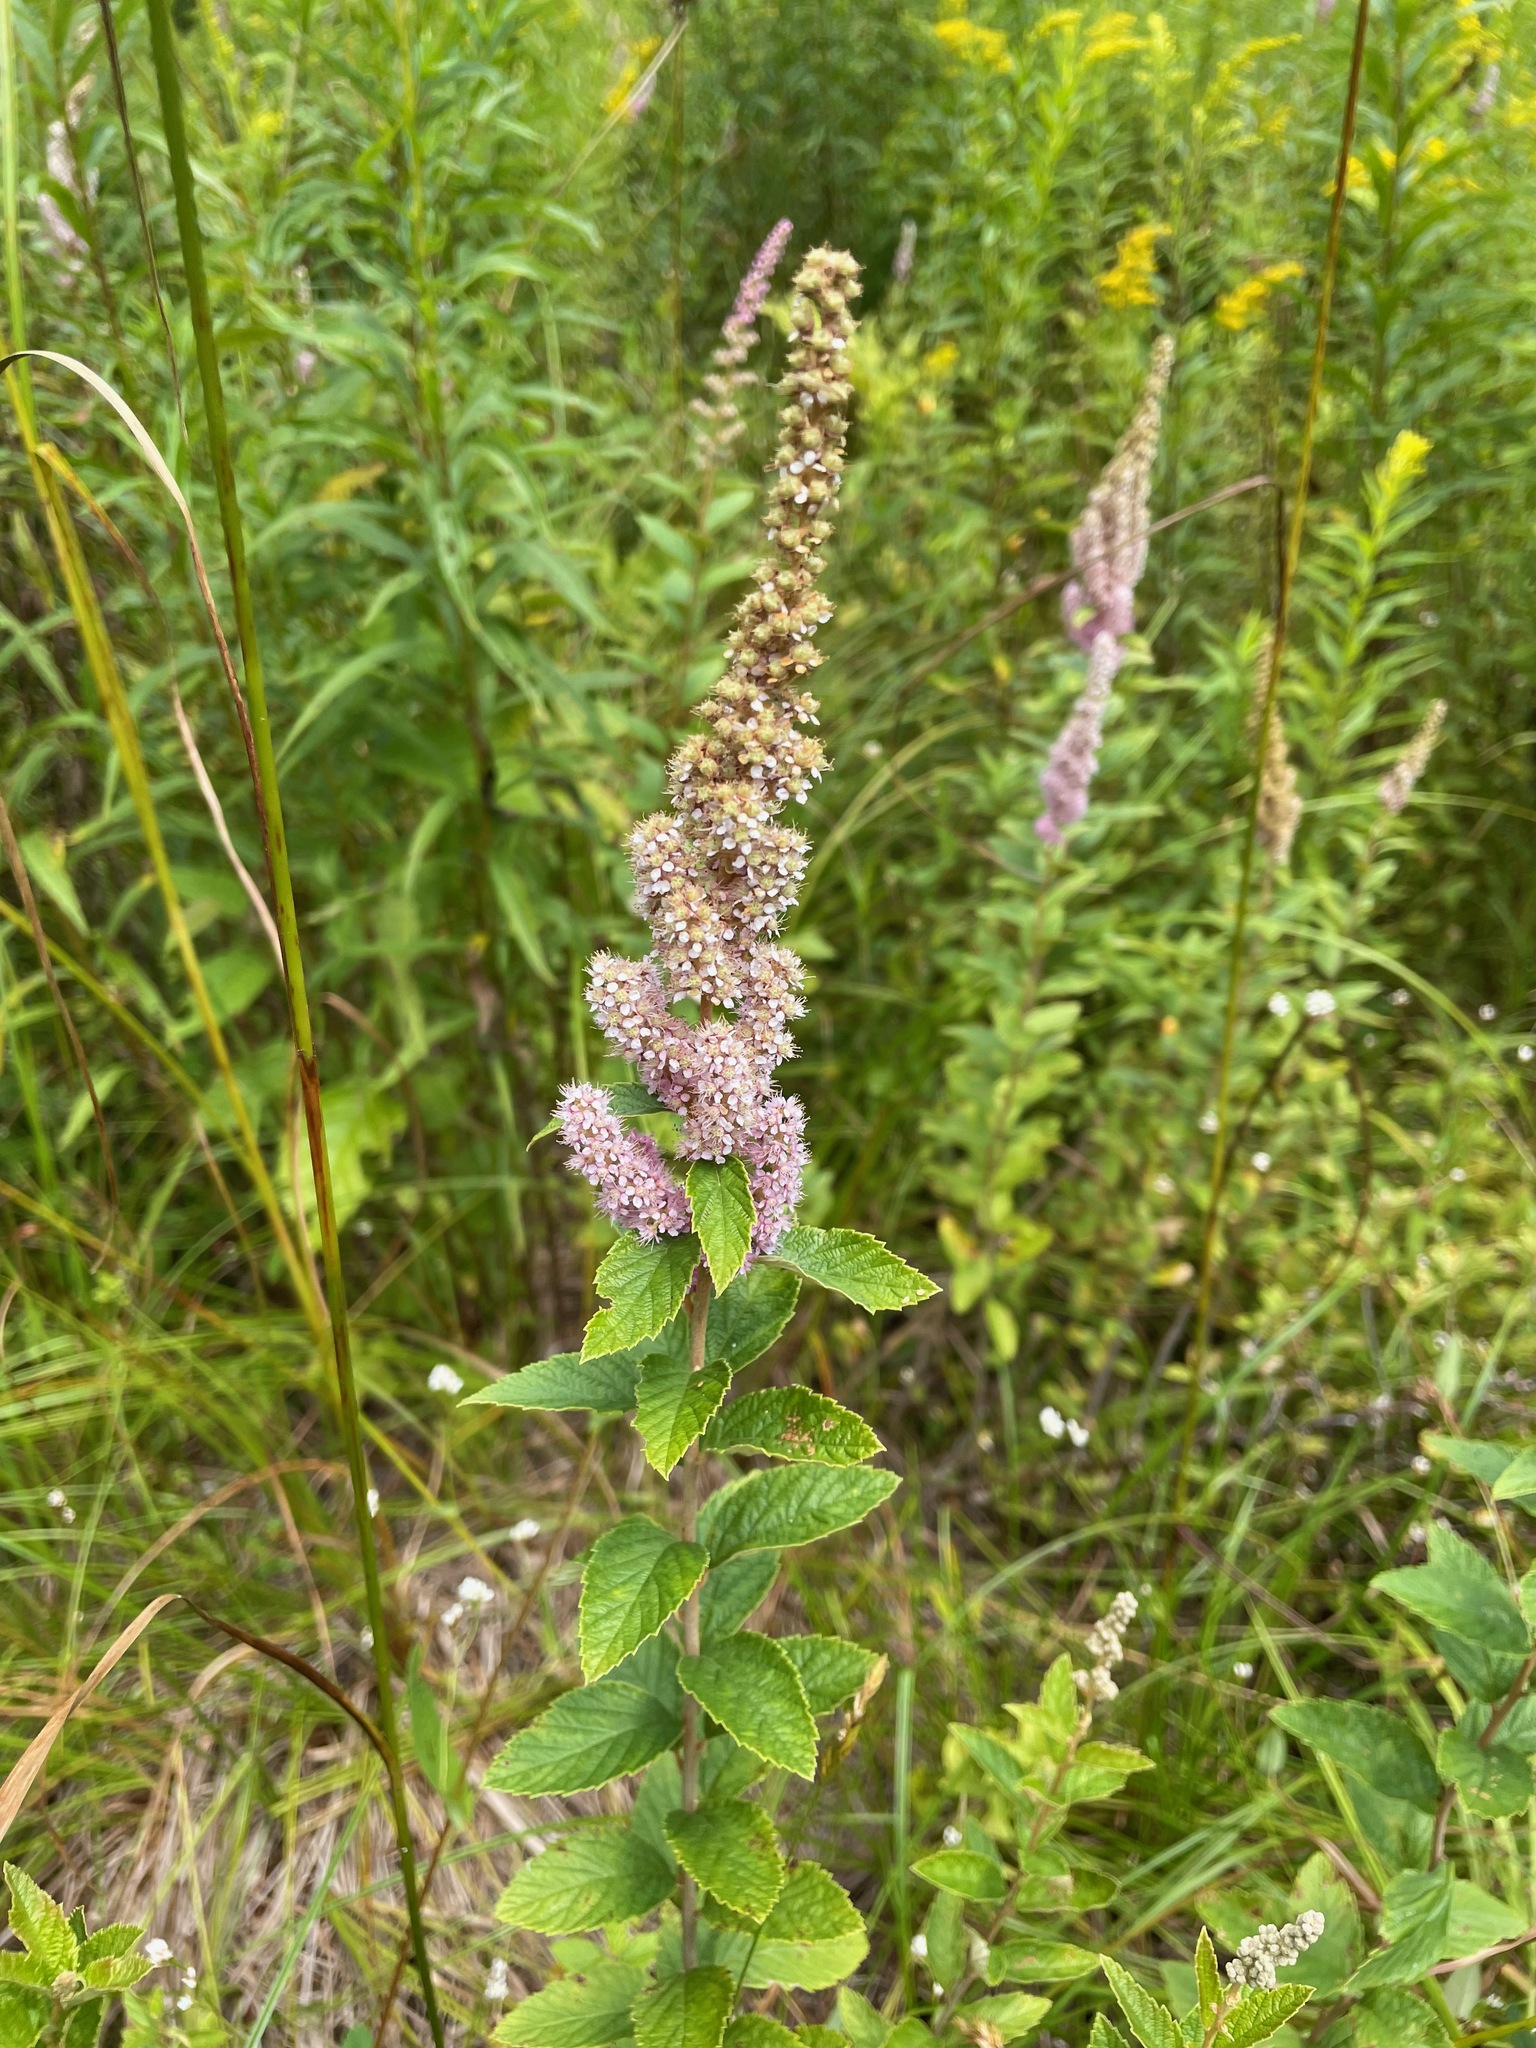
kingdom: Plantae
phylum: Tracheophyta
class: Magnoliopsida
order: Rosales
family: Rosaceae
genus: Spiraea
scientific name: Spiraea tomentosa
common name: Hardhack
